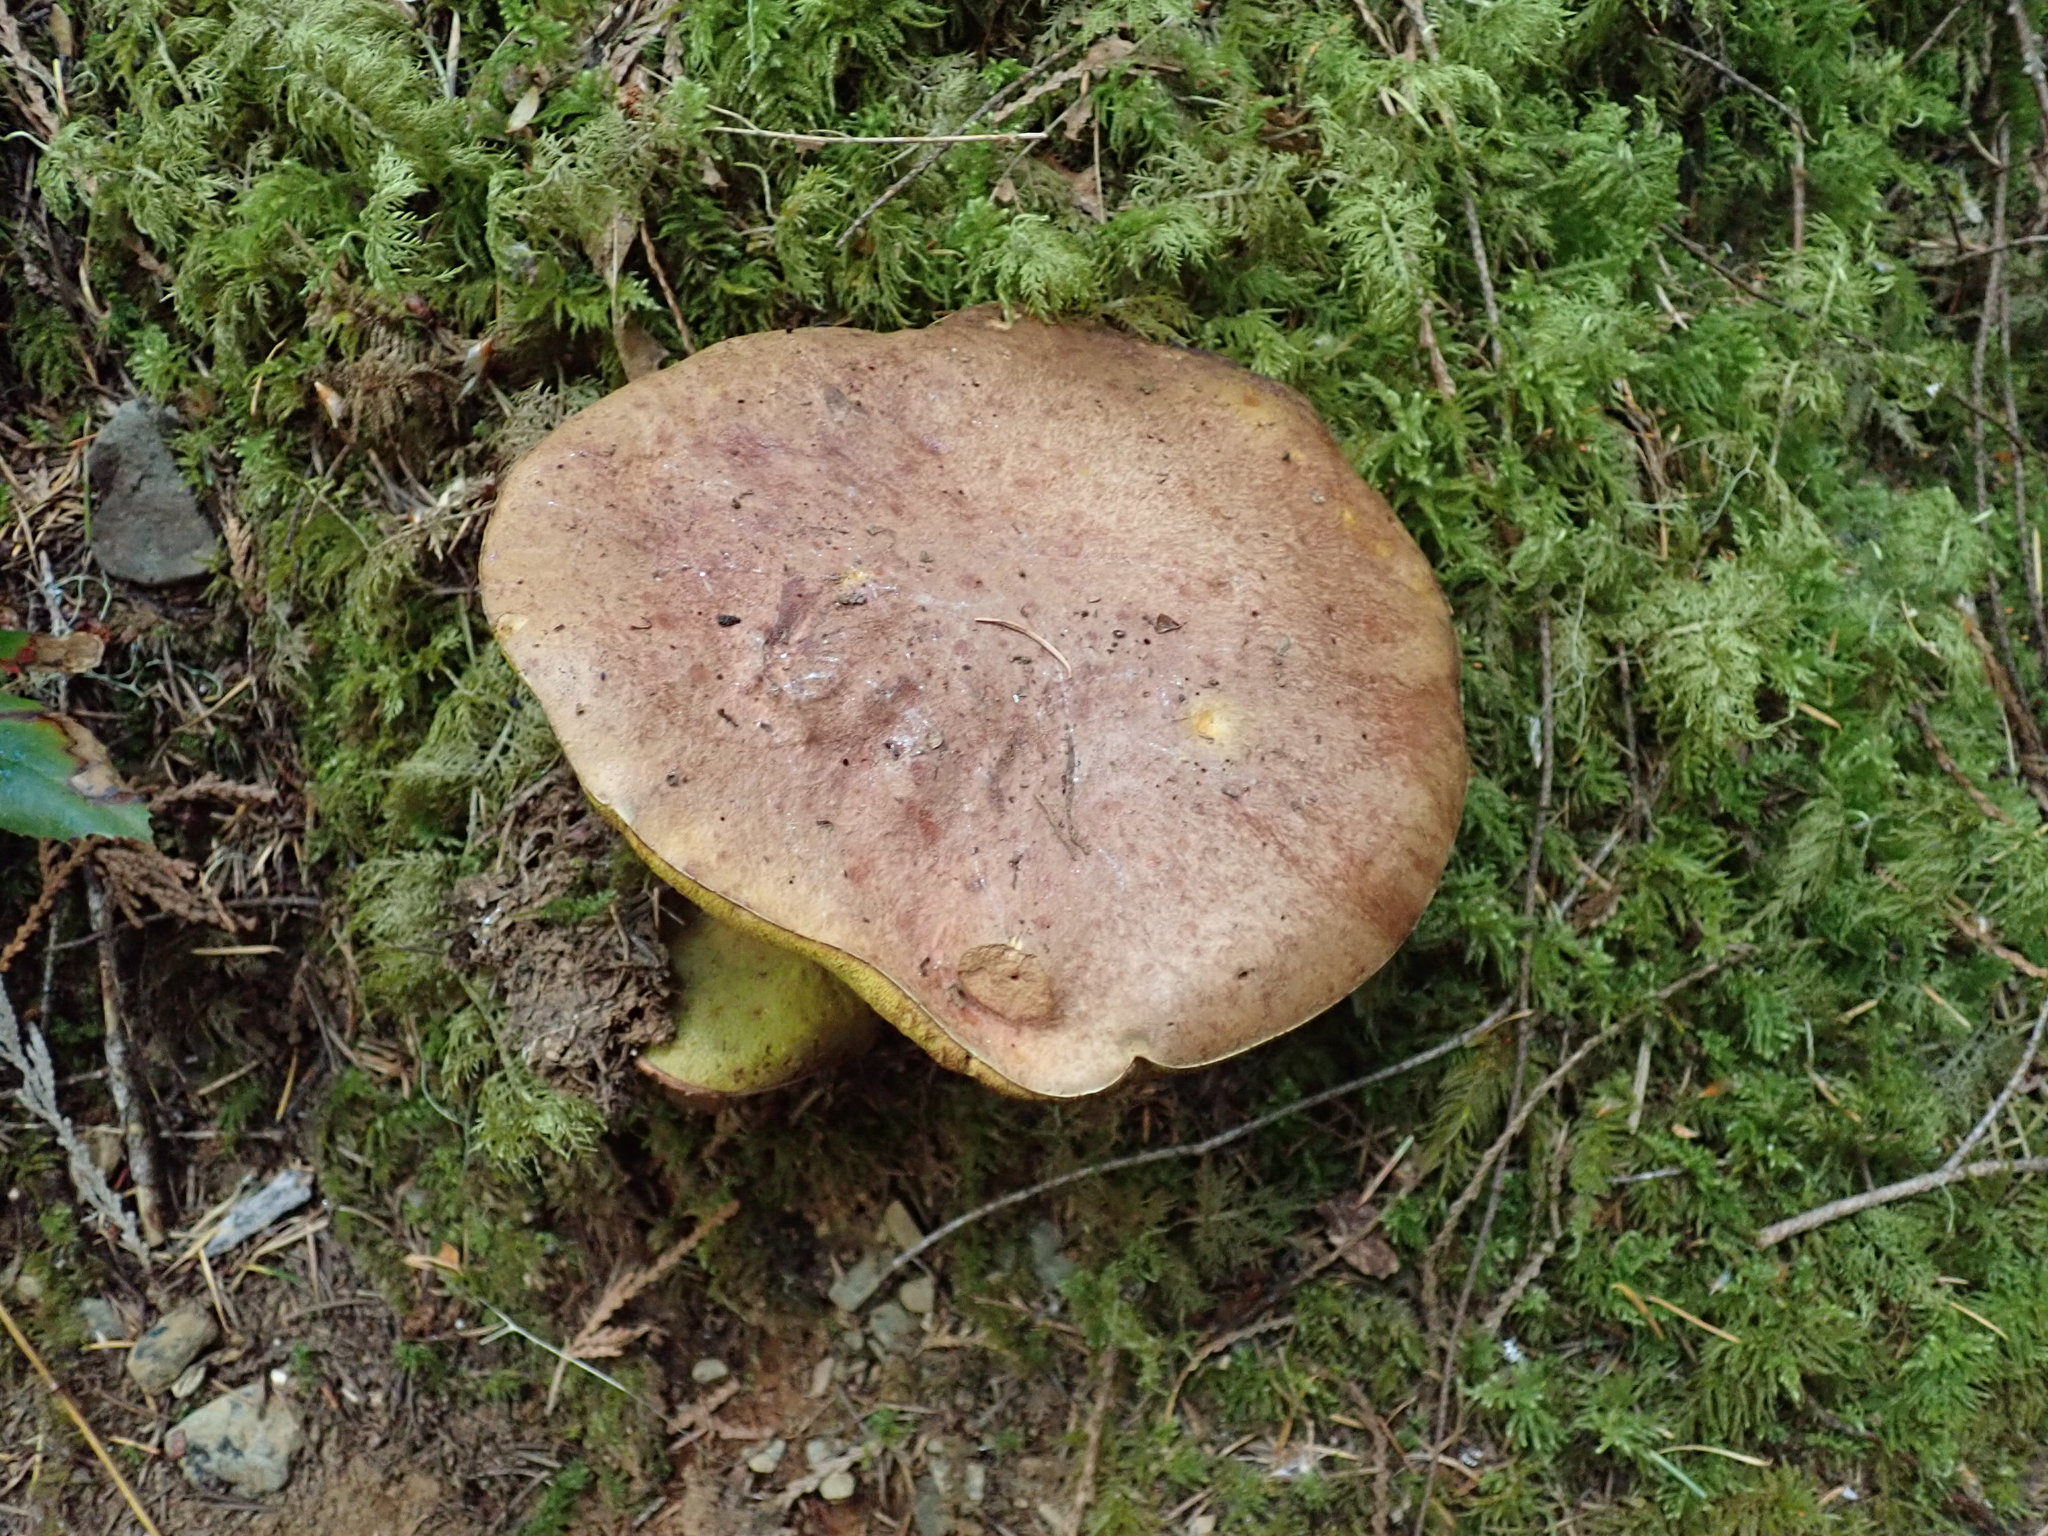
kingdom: Fungi
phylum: Basidiomycota
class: Agaricomycetes
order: Boletales
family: Boletaceae
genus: Boletus
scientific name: Boletus rex-veris
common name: Spring king
